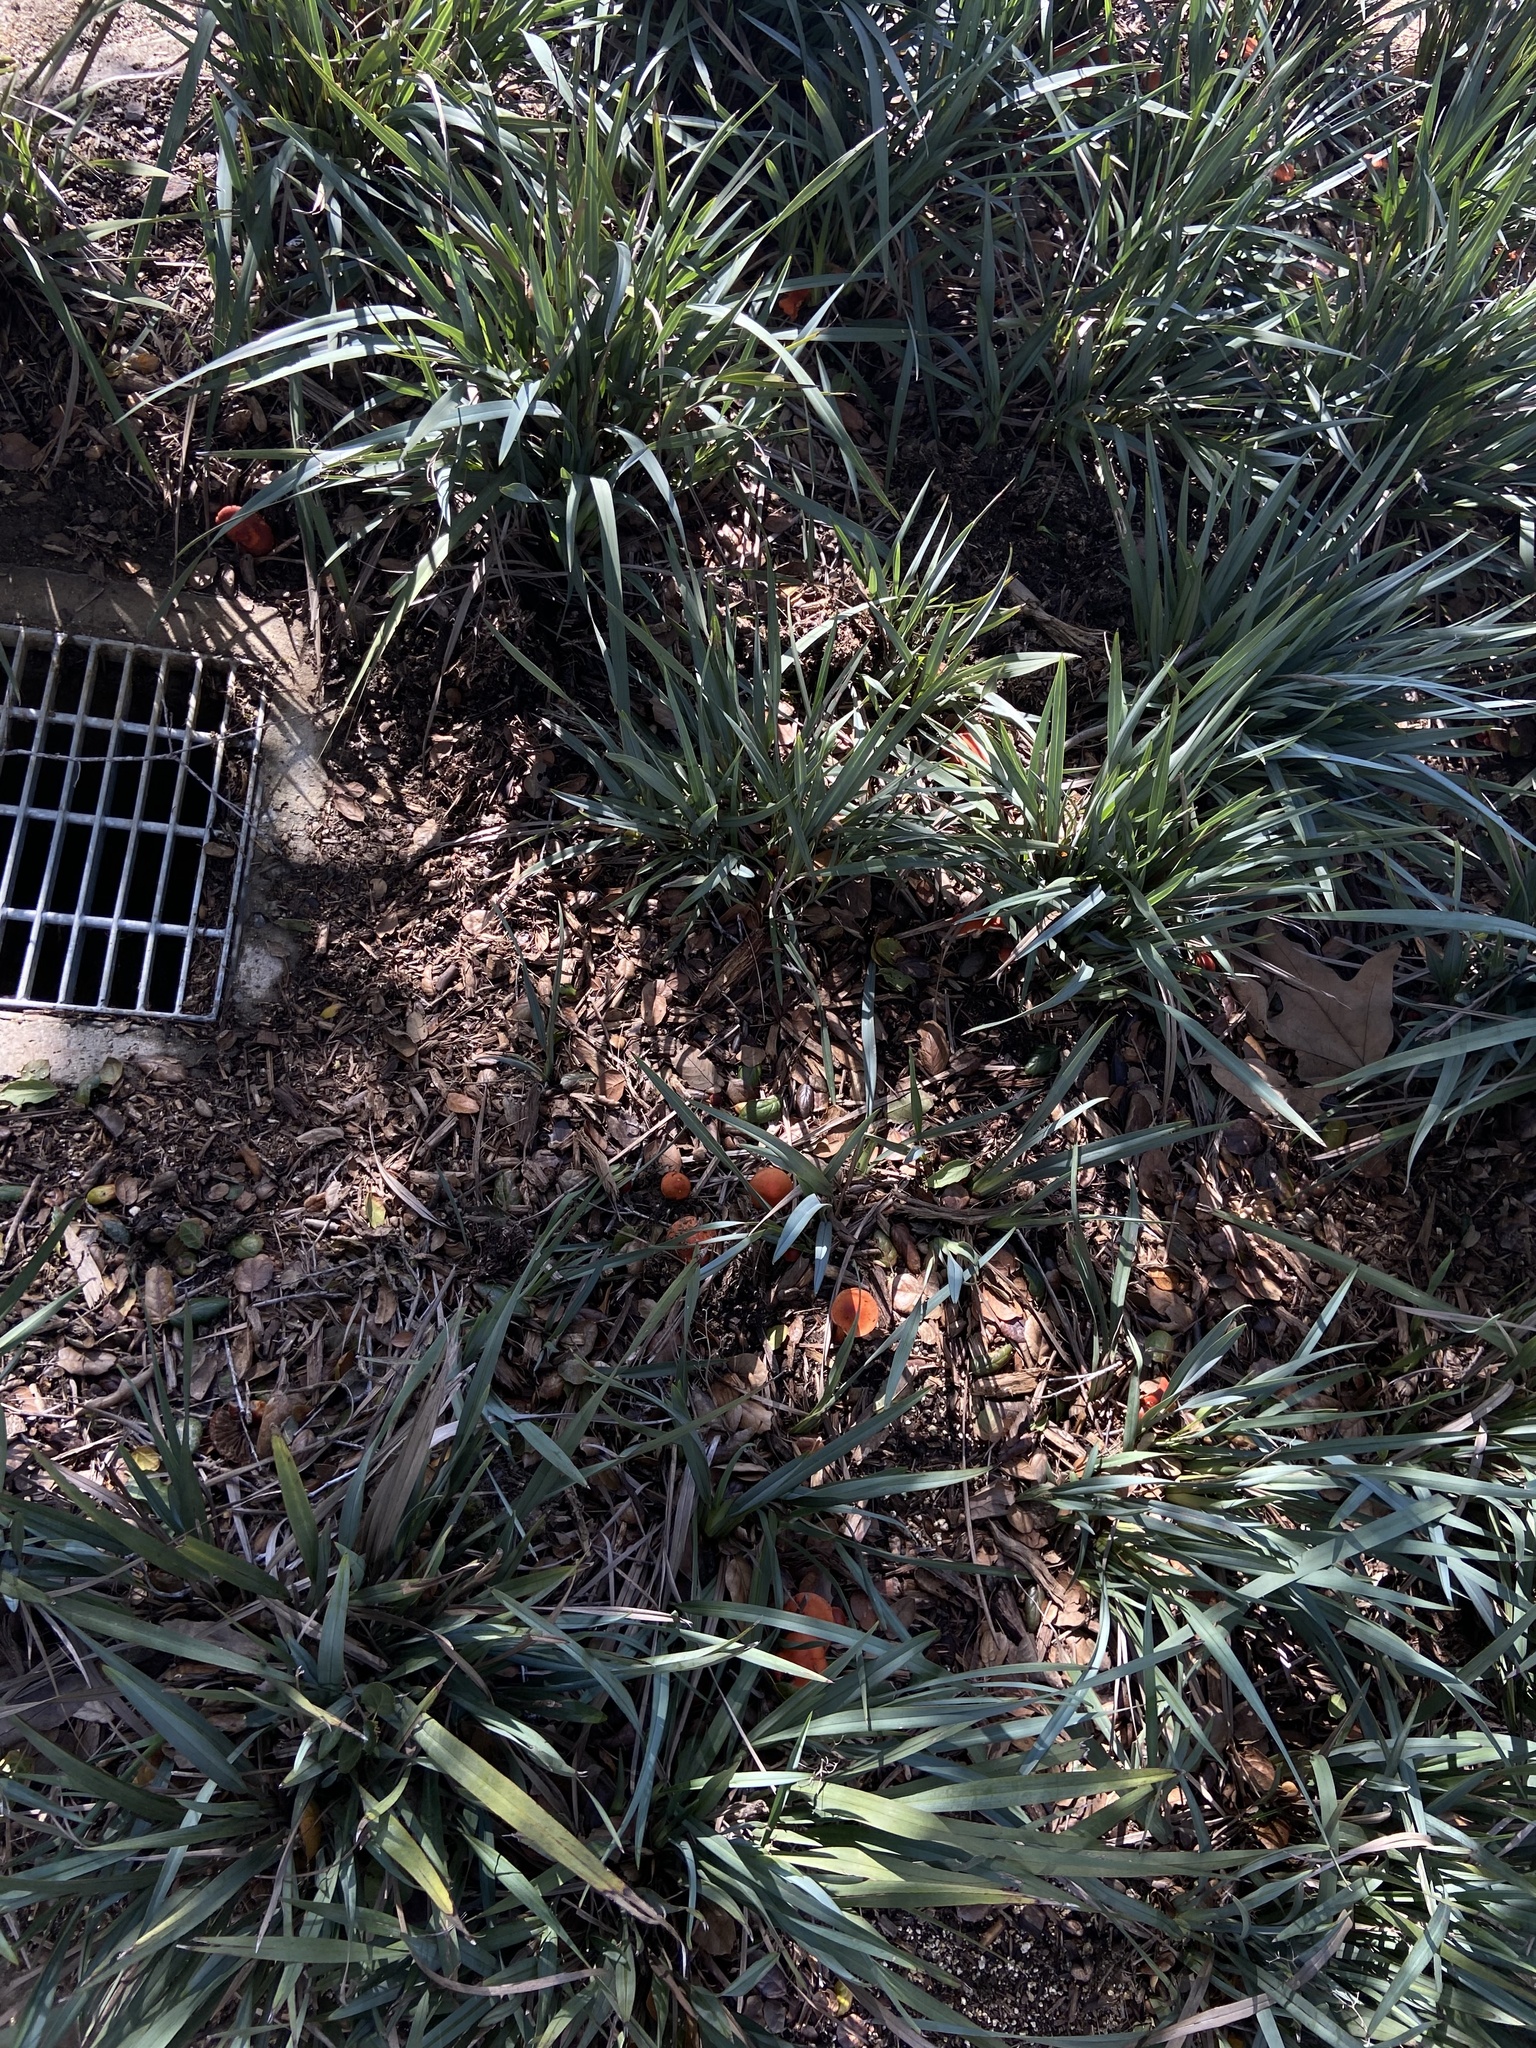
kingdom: Fungi
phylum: Basidiomycota
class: Agaricomycetes
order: Agaricales
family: Strophariaceae
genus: Leratiomyces
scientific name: Leratiomyces ceres
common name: Redlead roundhead
